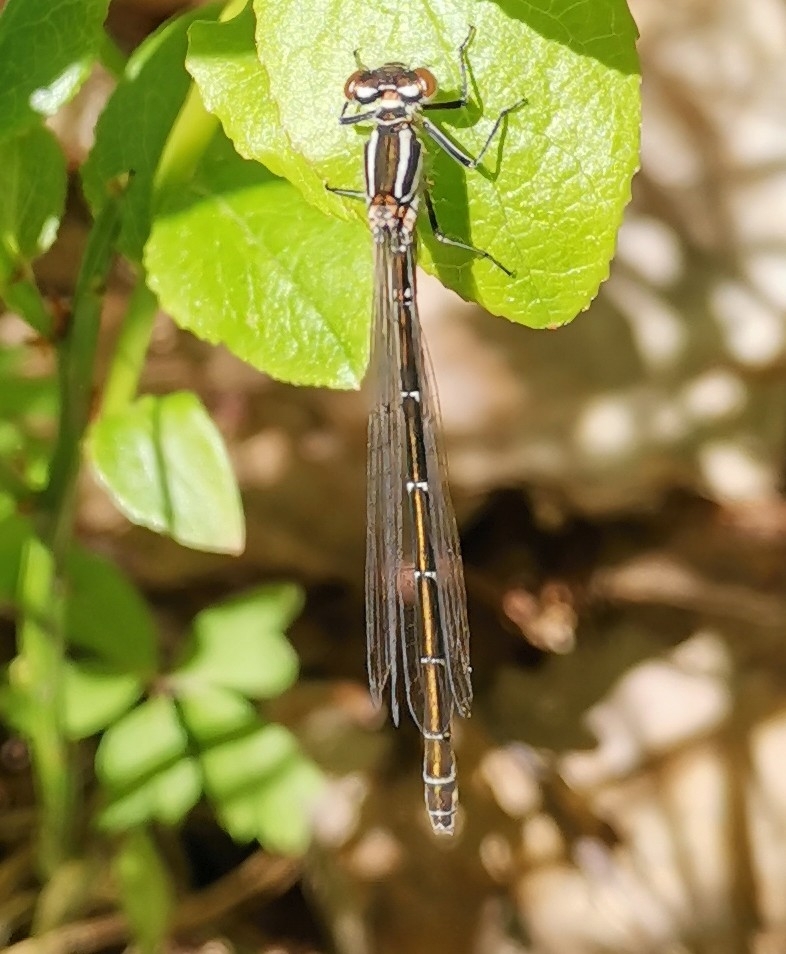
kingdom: Animalia
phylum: Arthropoda
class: Insecta
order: Odonata
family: Coenagrionidae
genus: Coenagrion
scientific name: Coenagrion hastulatum
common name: Spearhead bluet
